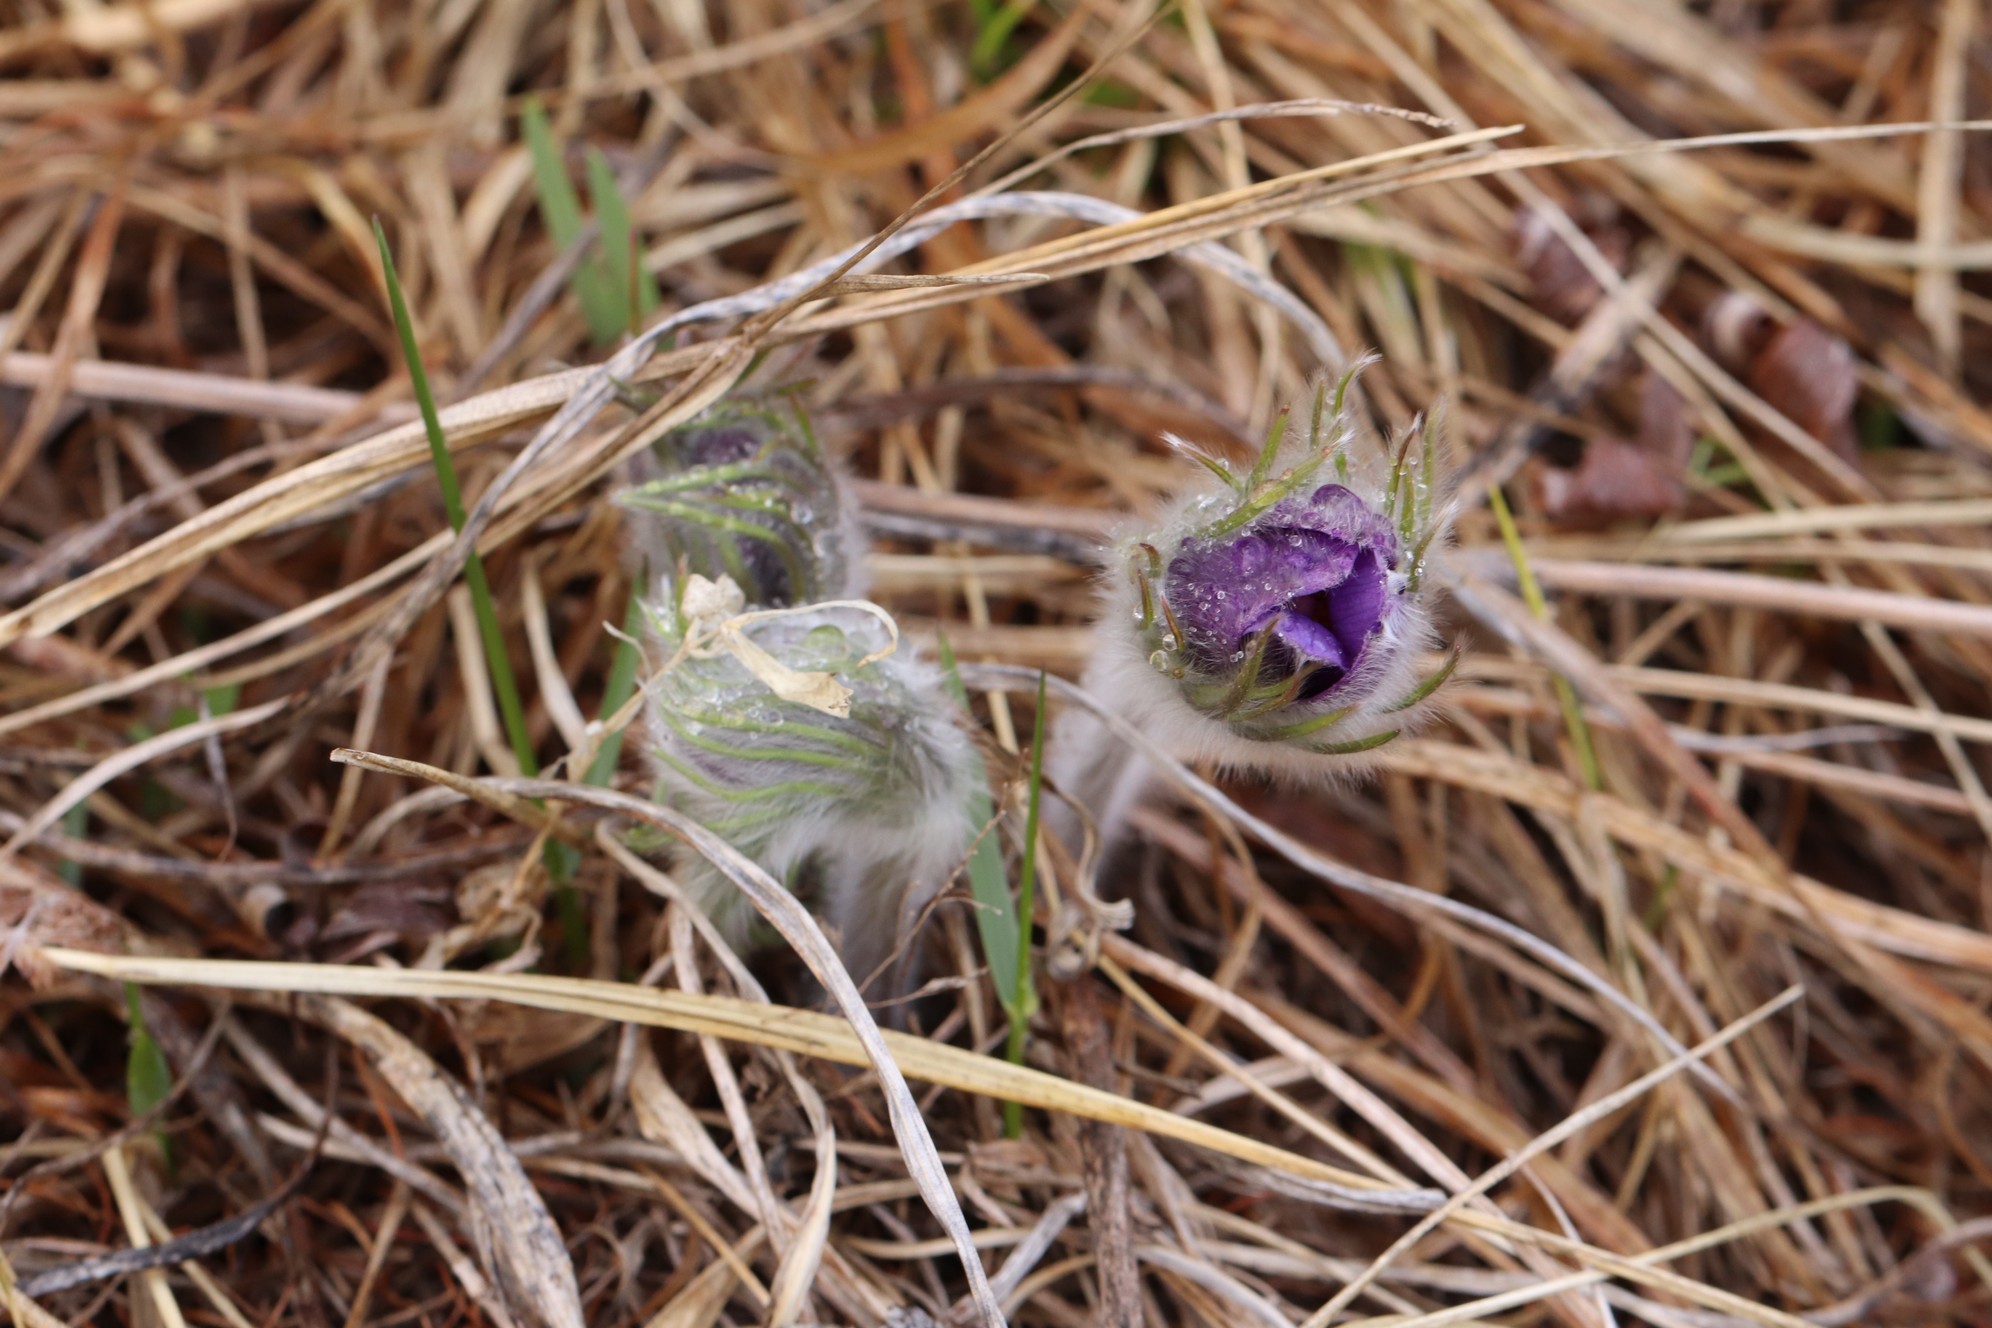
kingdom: Plantae
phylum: Tracheophyta
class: Magnoliopsida
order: Ranunculales
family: Ranunculaceae
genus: Pulsatilla
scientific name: Pulsatilla patens
